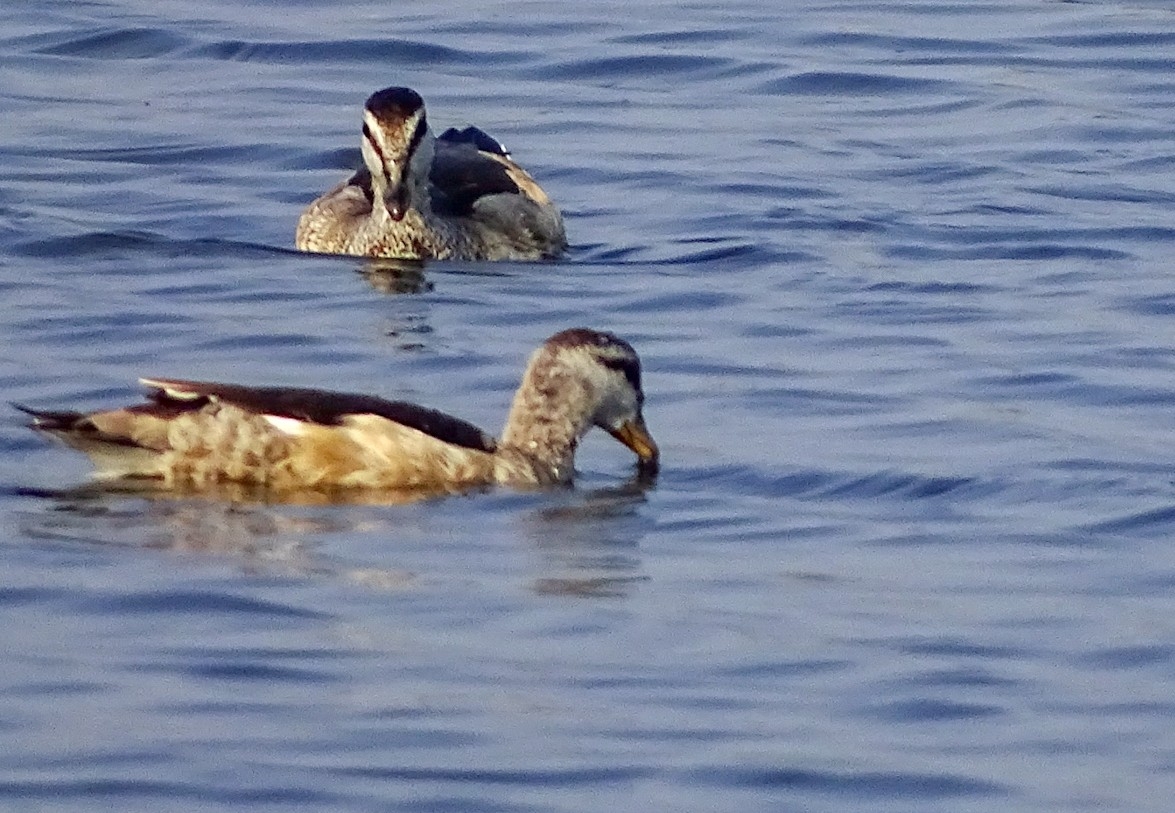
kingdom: Animalia
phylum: Chordata
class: Aves
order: Anseriformes
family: Anatidae
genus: Nettapus
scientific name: Nettapus coromandelianus
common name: Cotton pygmy-goose
